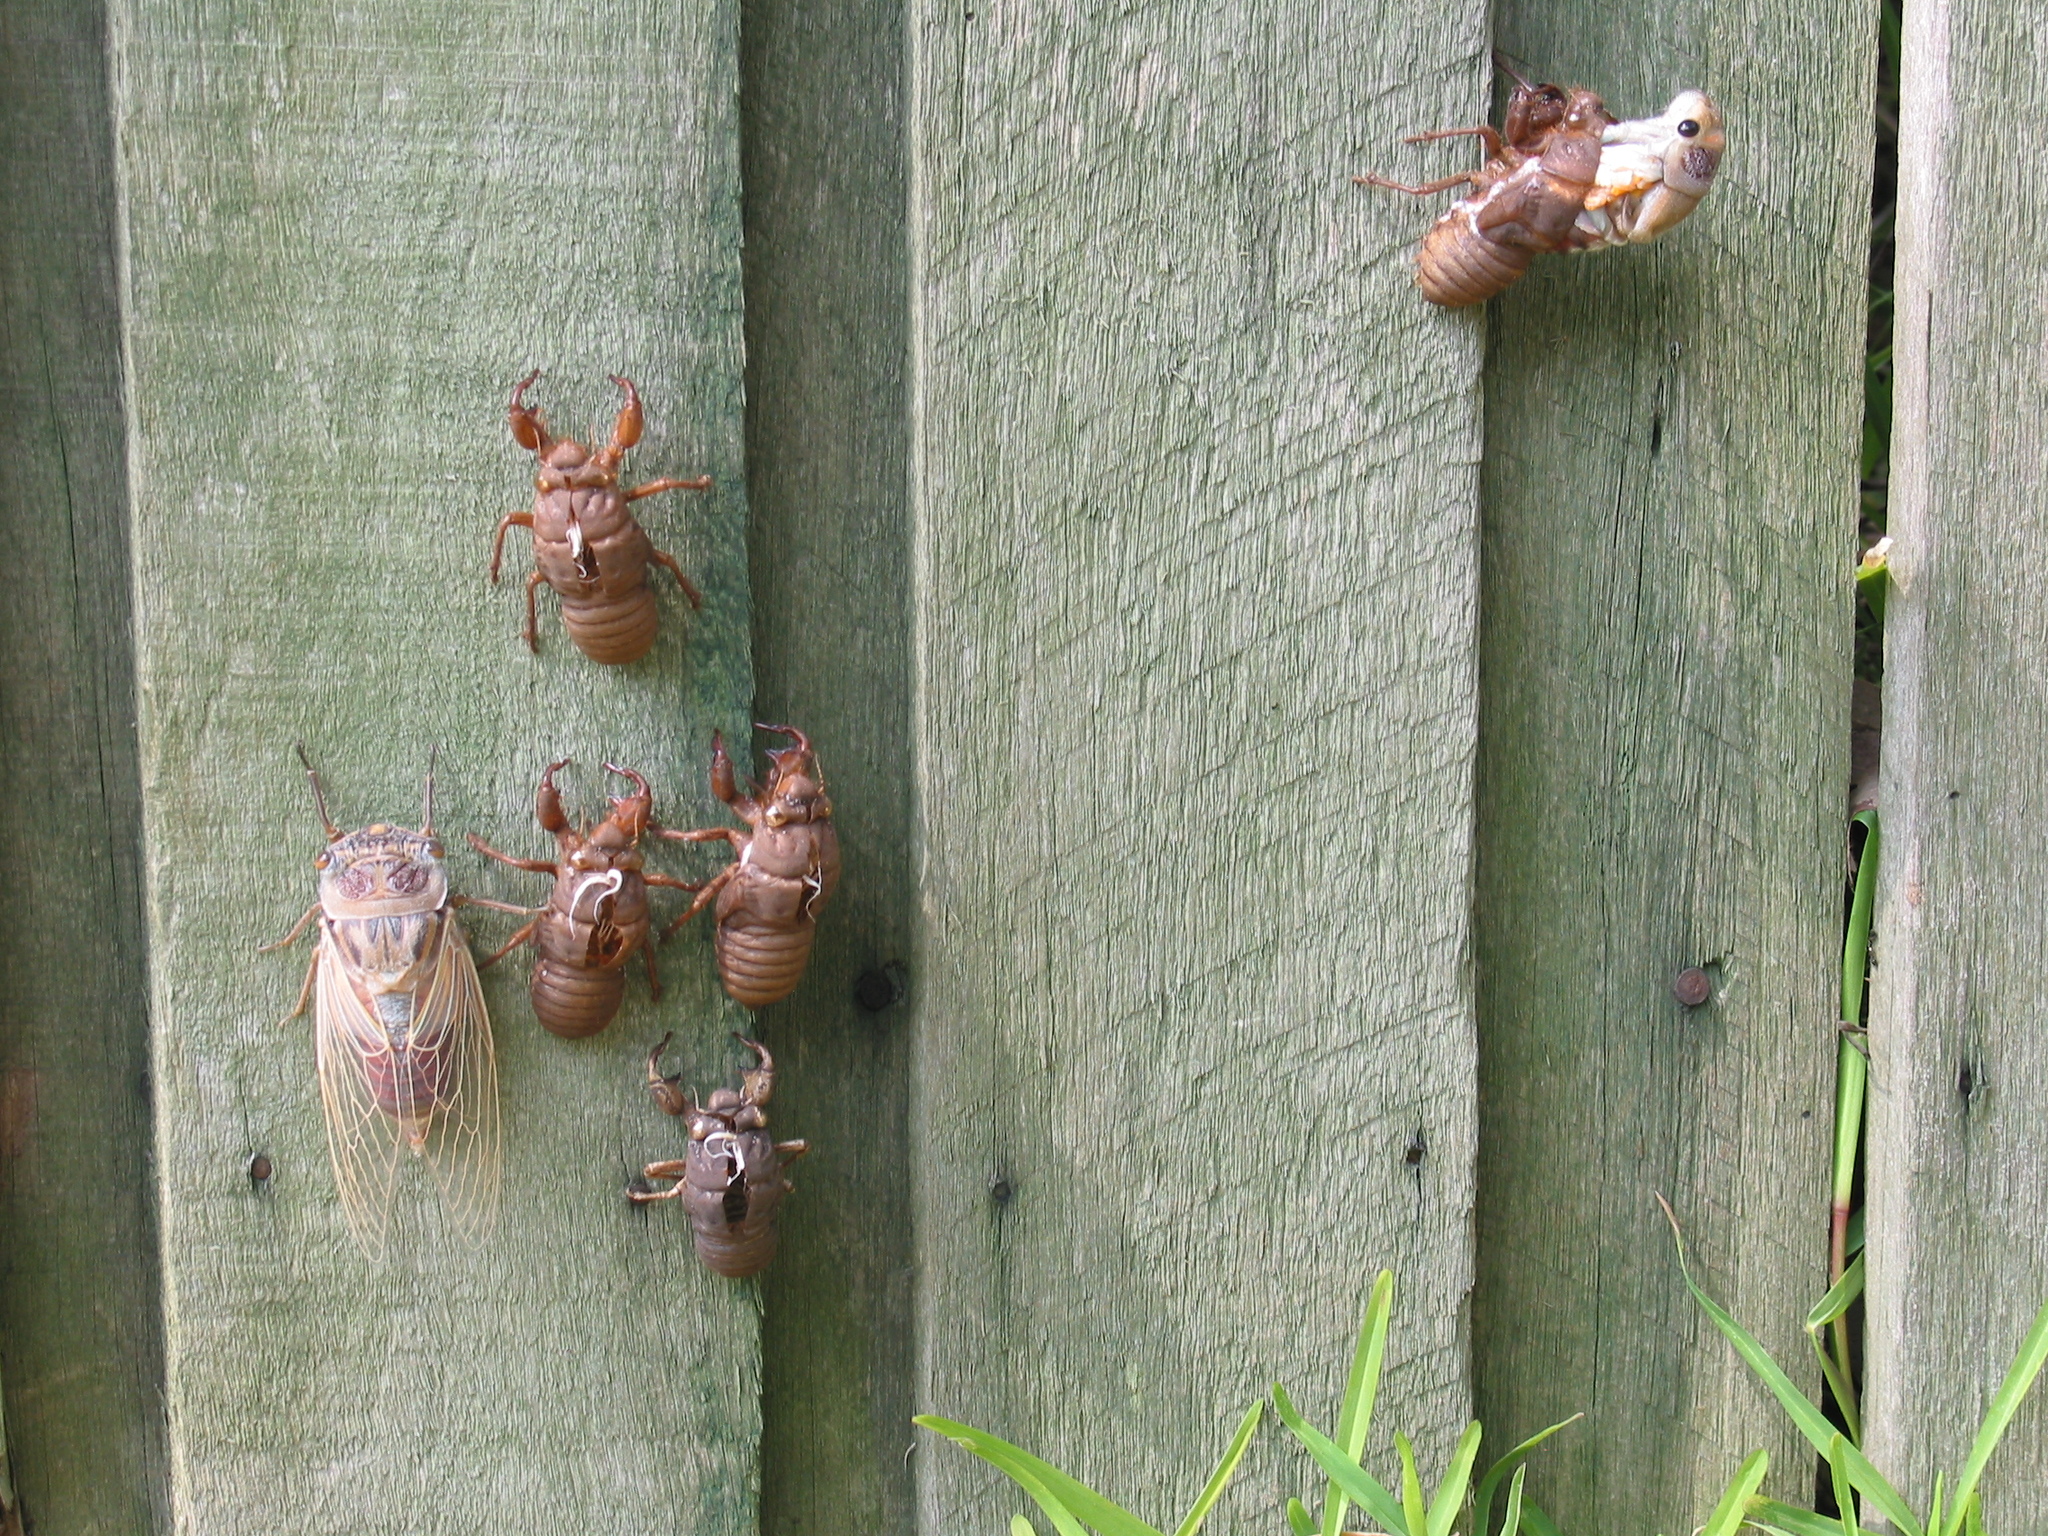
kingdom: Animalia
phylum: Arthropoda
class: Insecta
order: Hemiptera
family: Cicadidae
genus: Thopha
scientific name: Thopha saccata
